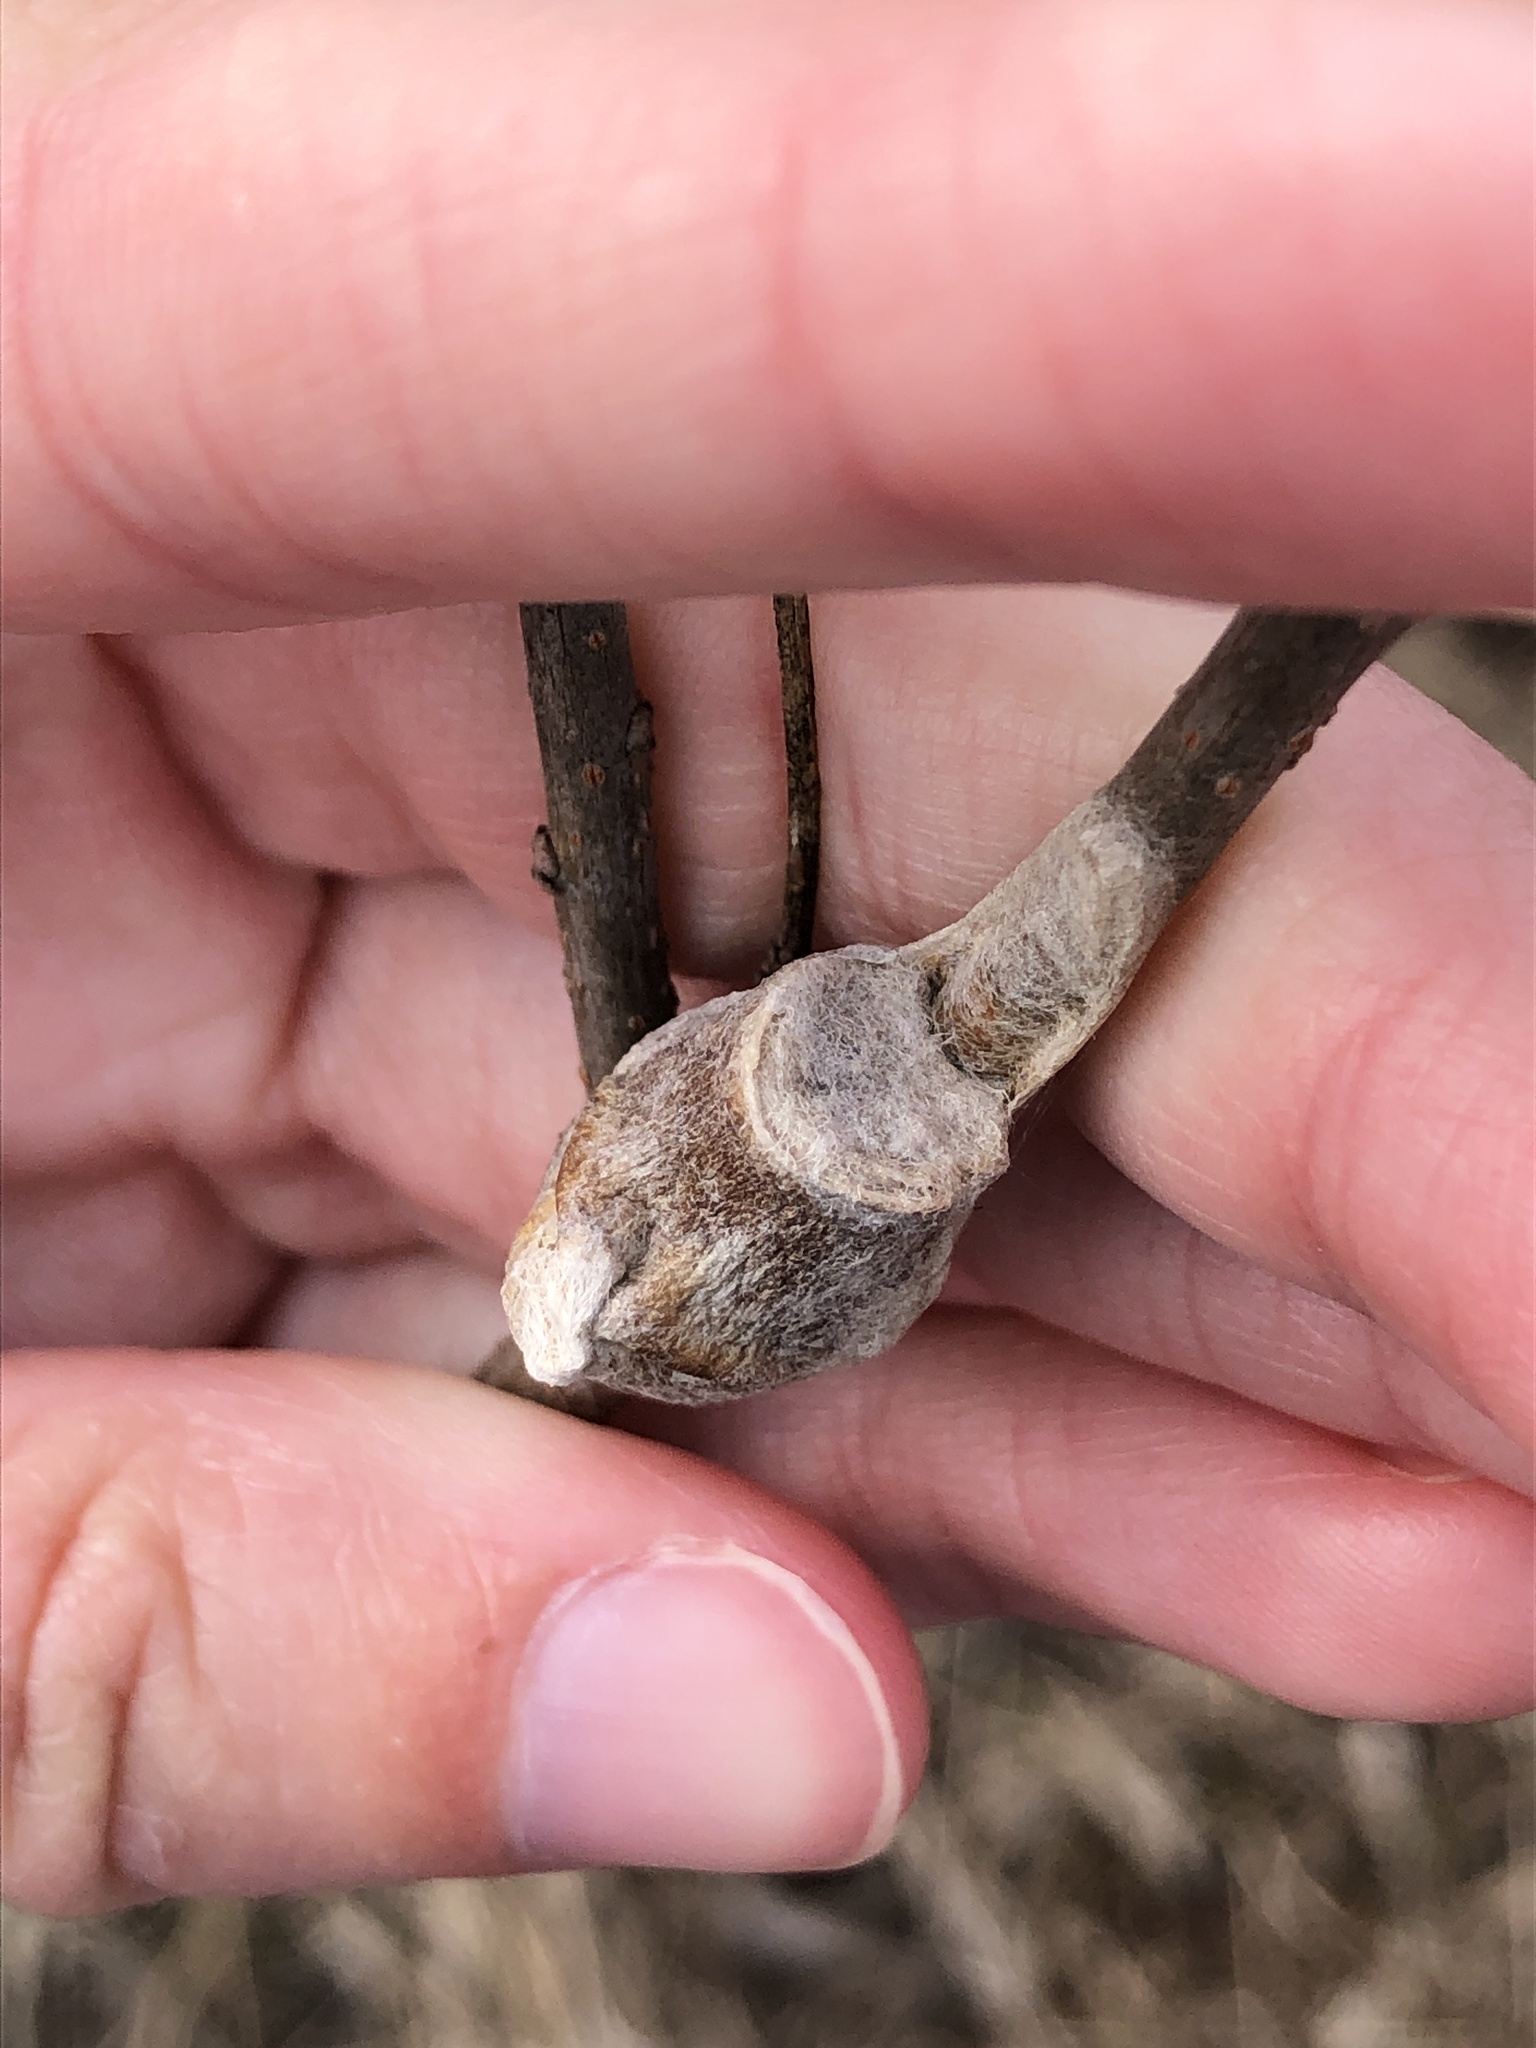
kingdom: Animalia
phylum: Arthropoda
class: Insecta
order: Lepidoptera
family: Megalopygidae
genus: Megalopyge
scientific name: Megalopyge
